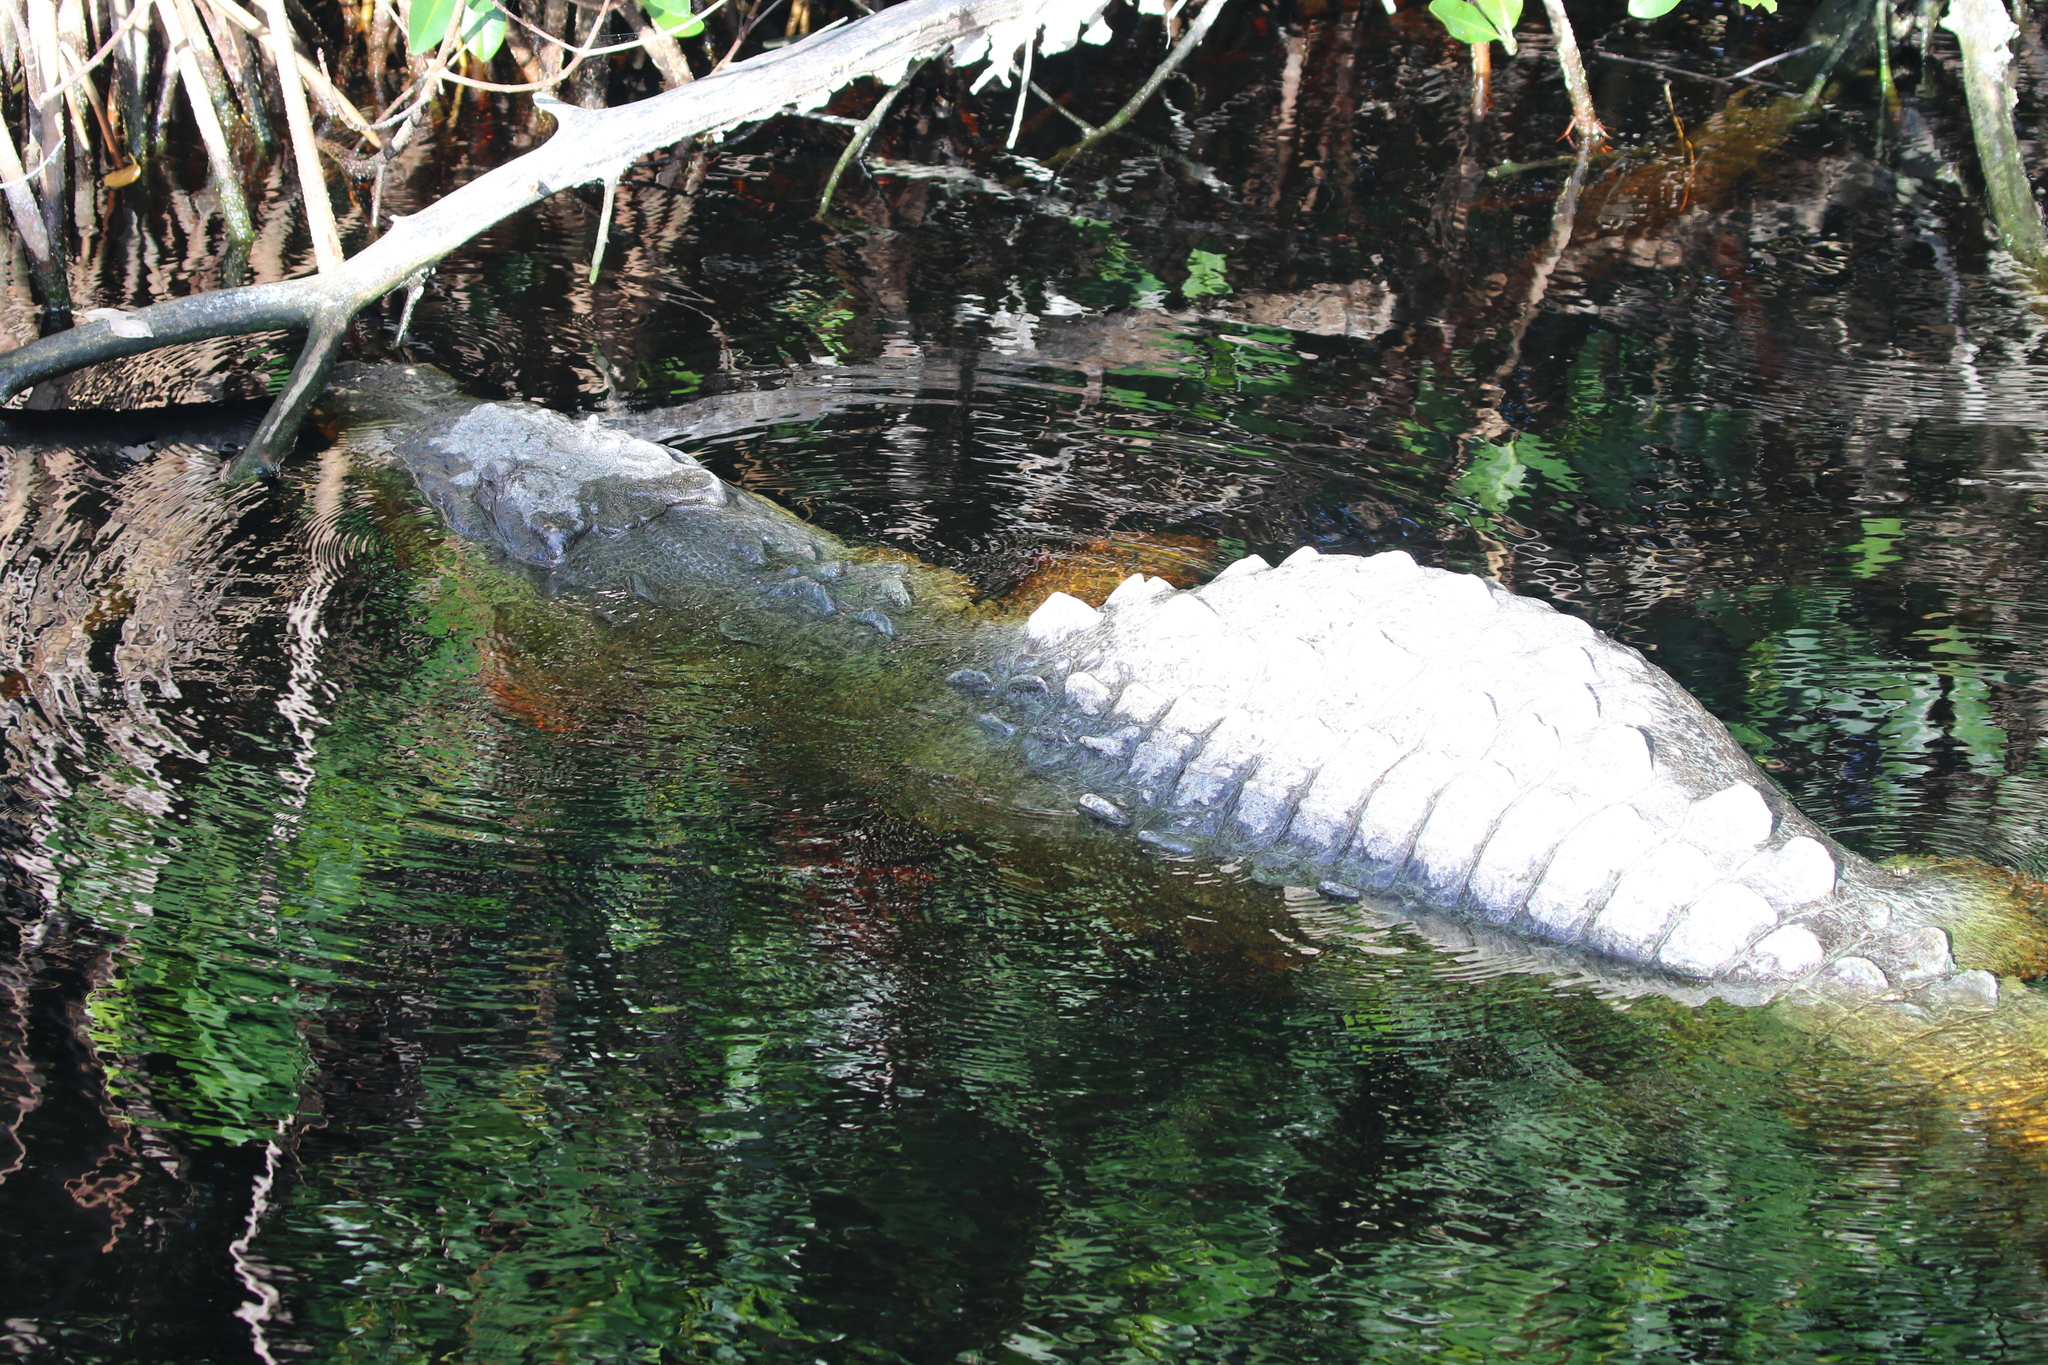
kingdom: Animalia
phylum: Chordata
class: Crocodylia
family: Crocodylidae
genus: Crocodylus
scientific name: Crocodylus acutus
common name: American crocodile
